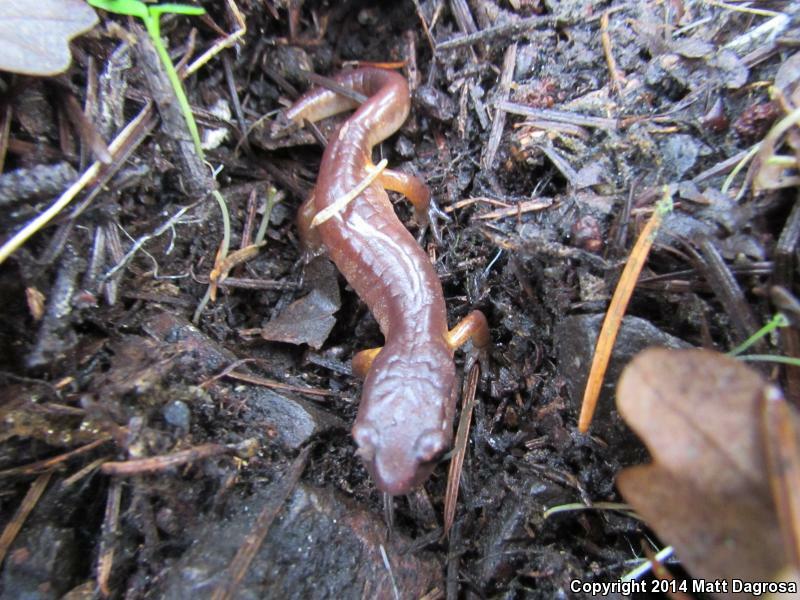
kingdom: Animalia
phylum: Chordata
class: Amphibia
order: Caudata
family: Plethodontidae
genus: Ensatina
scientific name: Ensatina eschscholtzii
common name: Ensatina
